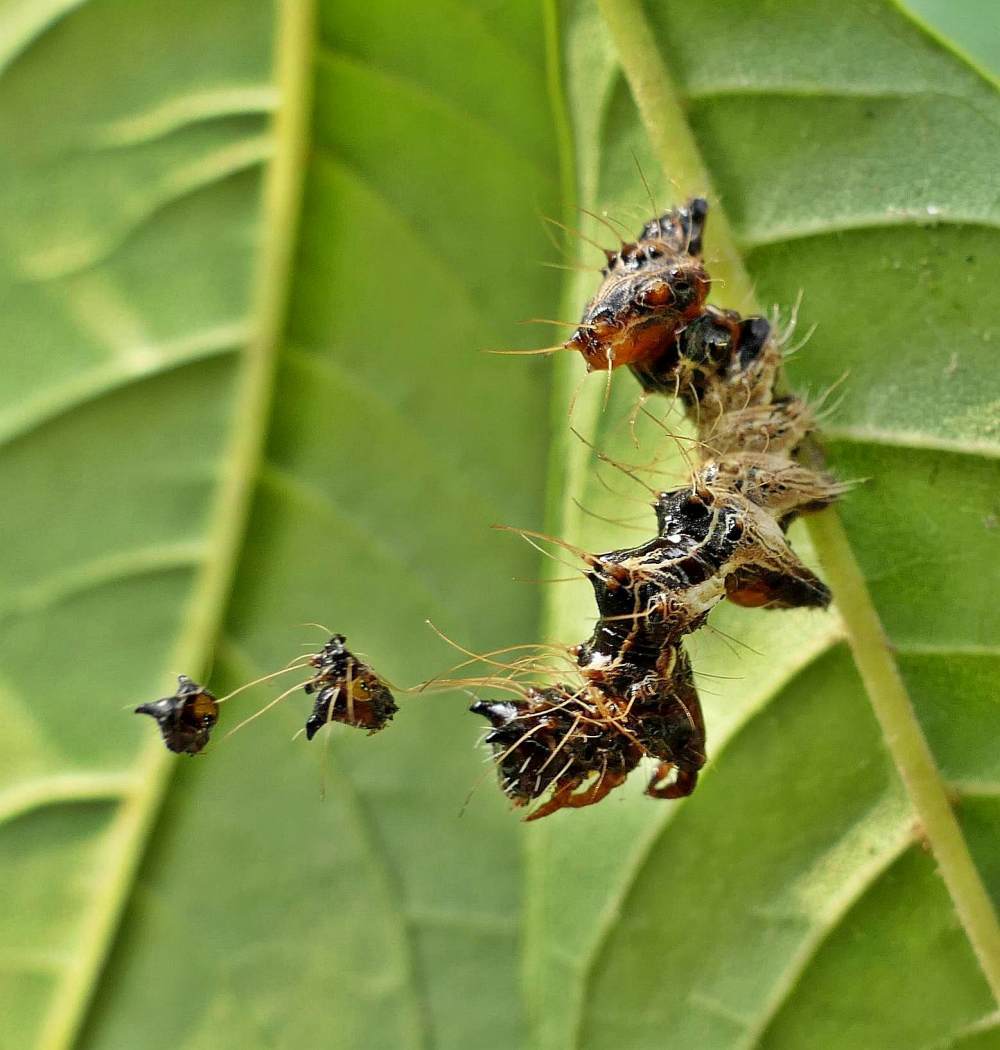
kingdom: Animalia
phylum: Arthropoda
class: Insecta
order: Lepidoptera
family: Noctuidae
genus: Harrisimemna
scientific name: Harrisimemna trisignata
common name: Harris threespot
